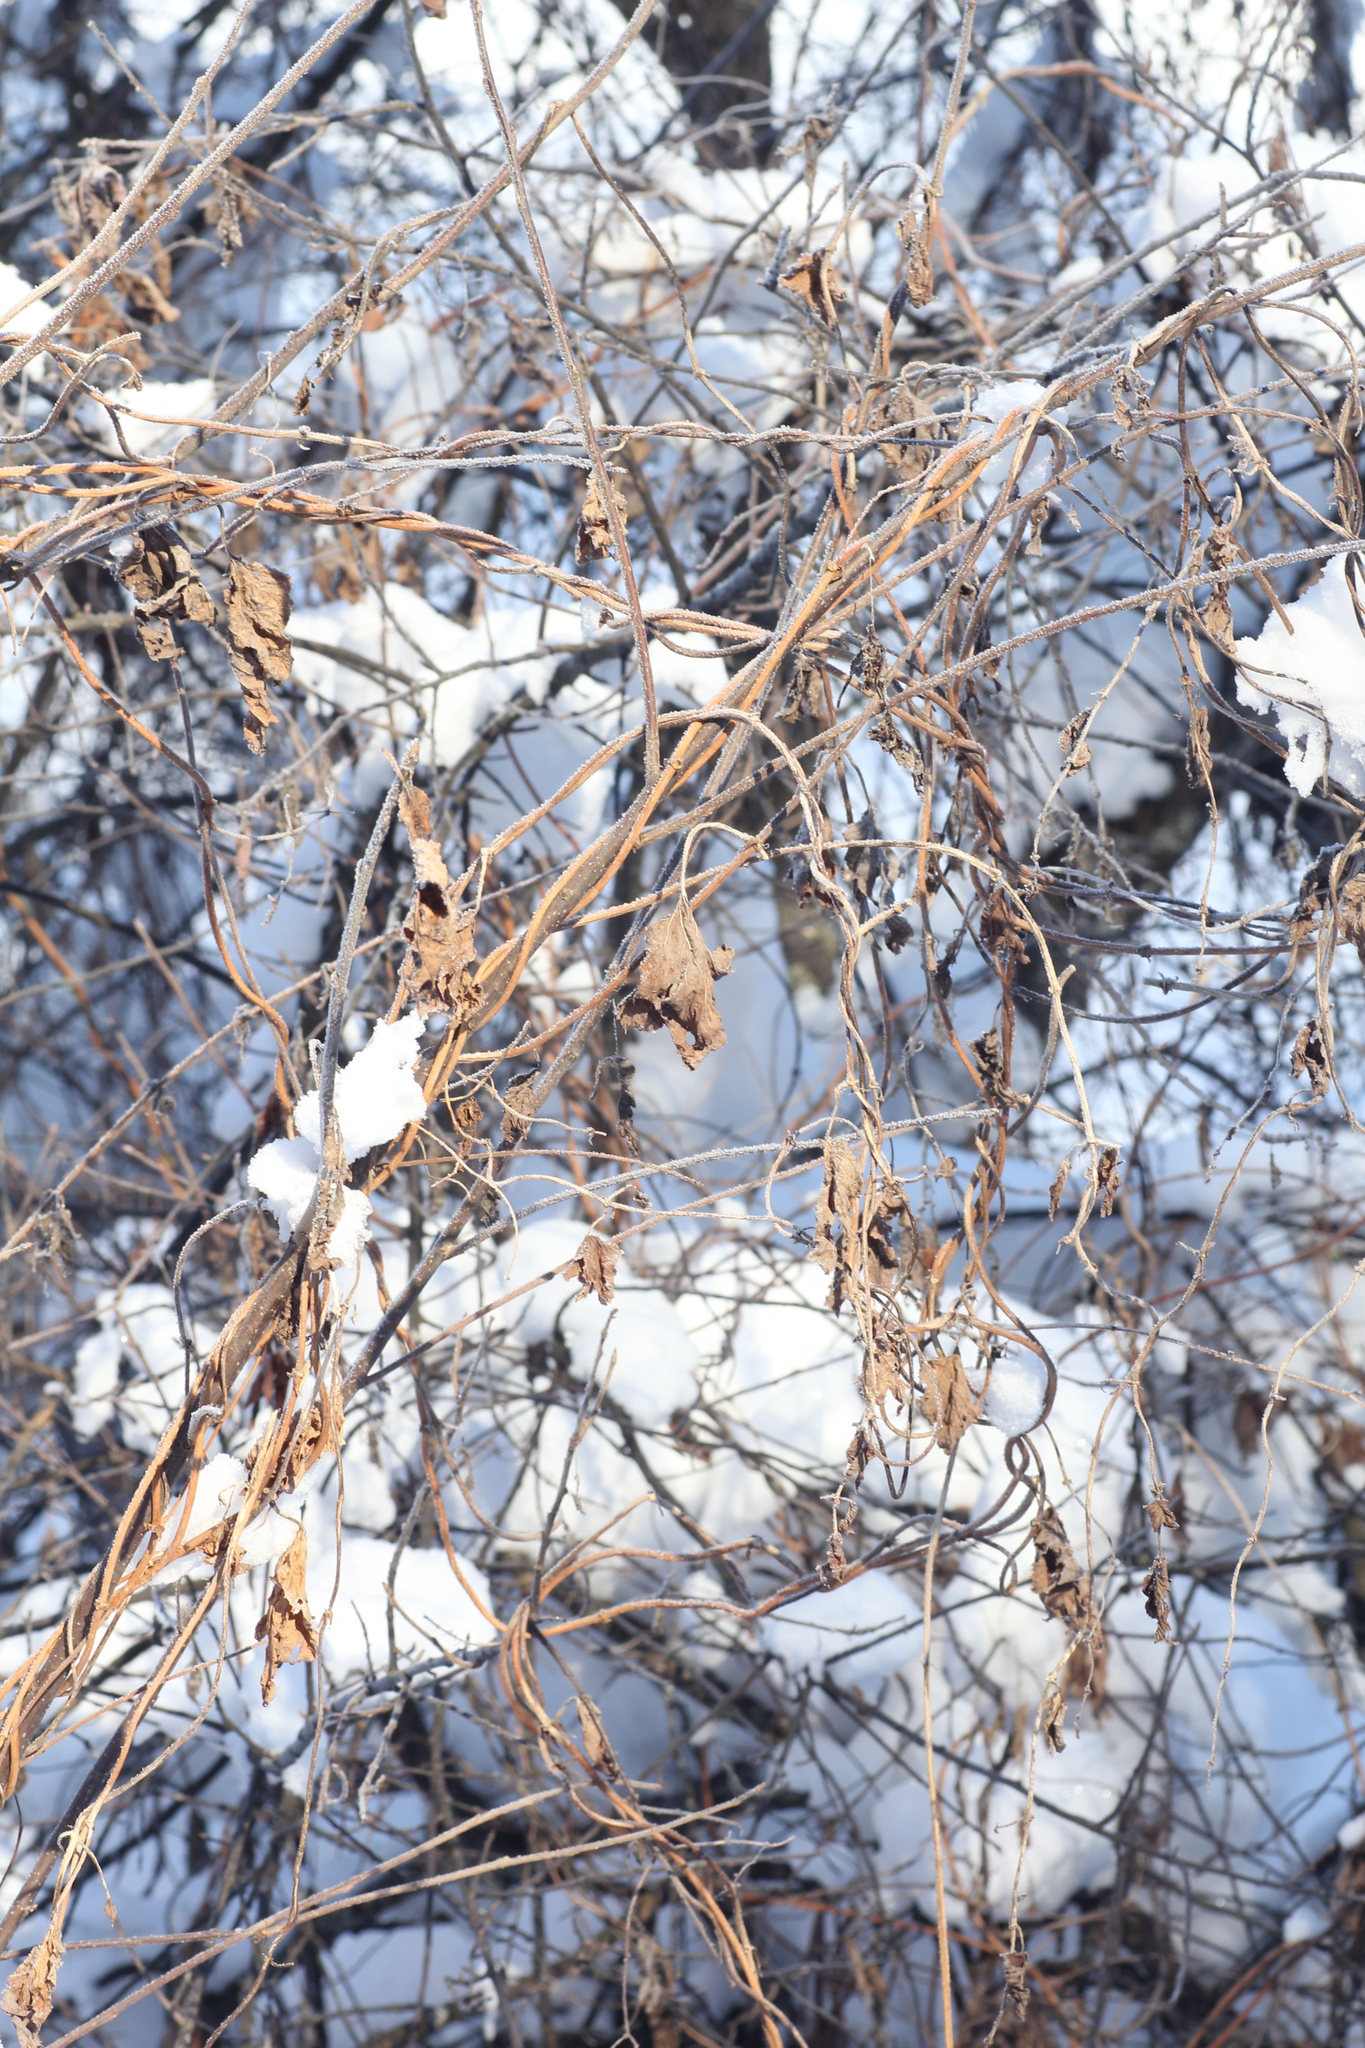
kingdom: Plantae
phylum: Tracheophyta
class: Magnoliopsida
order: Rosales
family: Cannabaceae
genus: Humulus
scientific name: Humulus lupulus
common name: Hop
